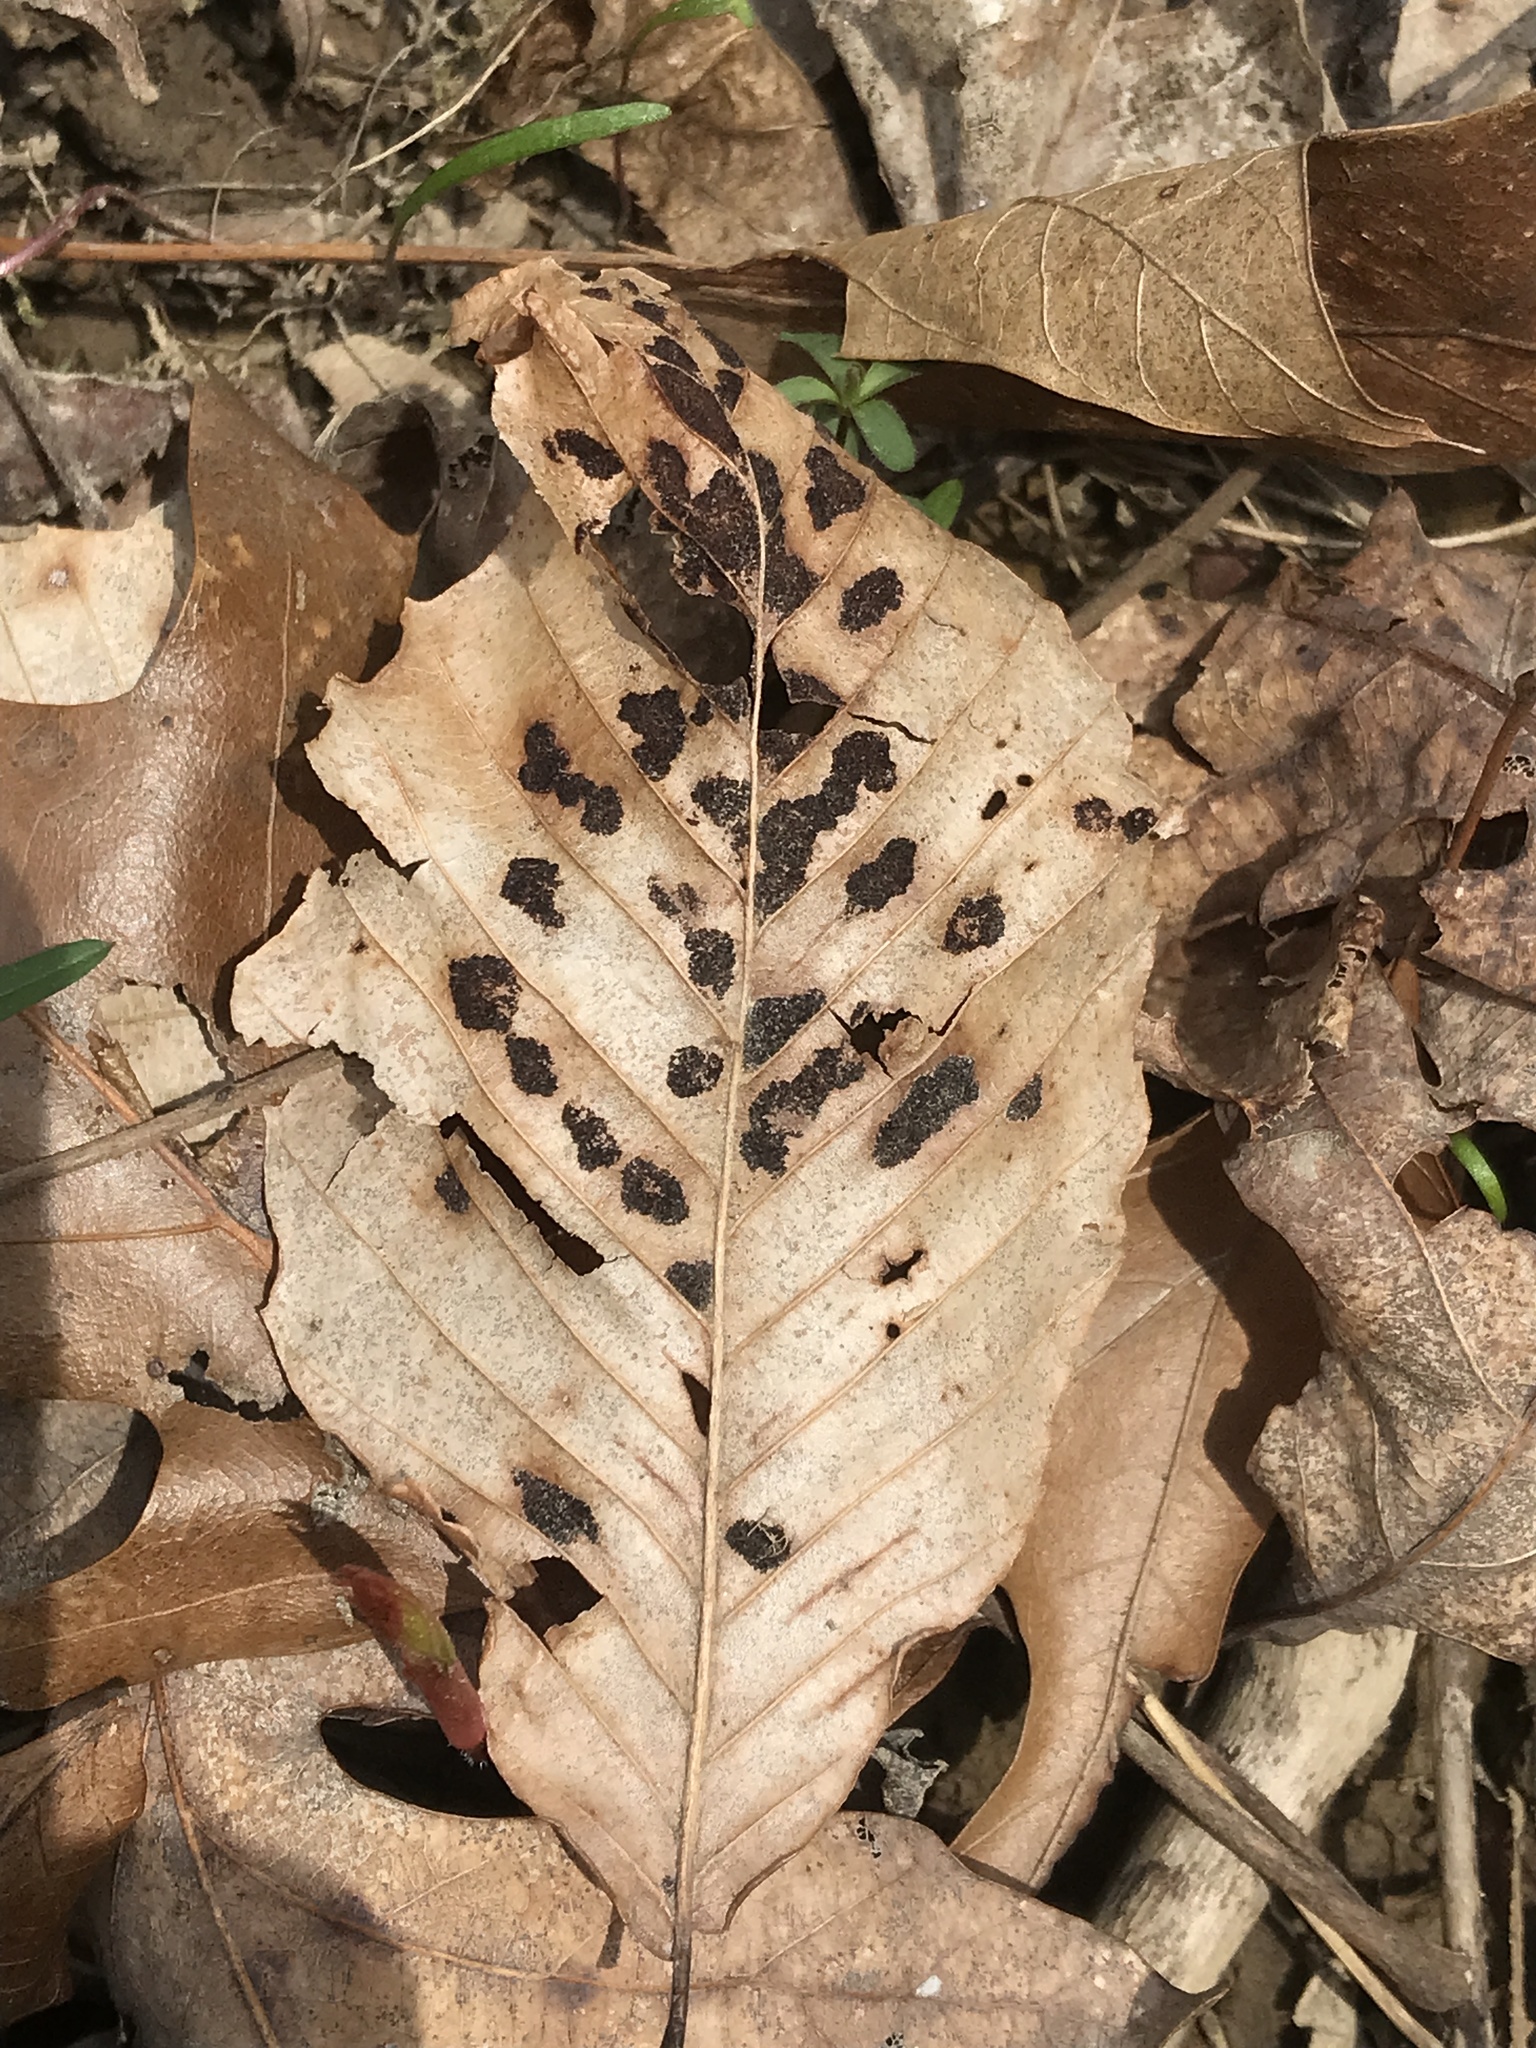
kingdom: Animalia
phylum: Arthropoda
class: Arachnida
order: Trombidiformes
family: Eriophyidae
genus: Acalitus
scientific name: Acalitus
